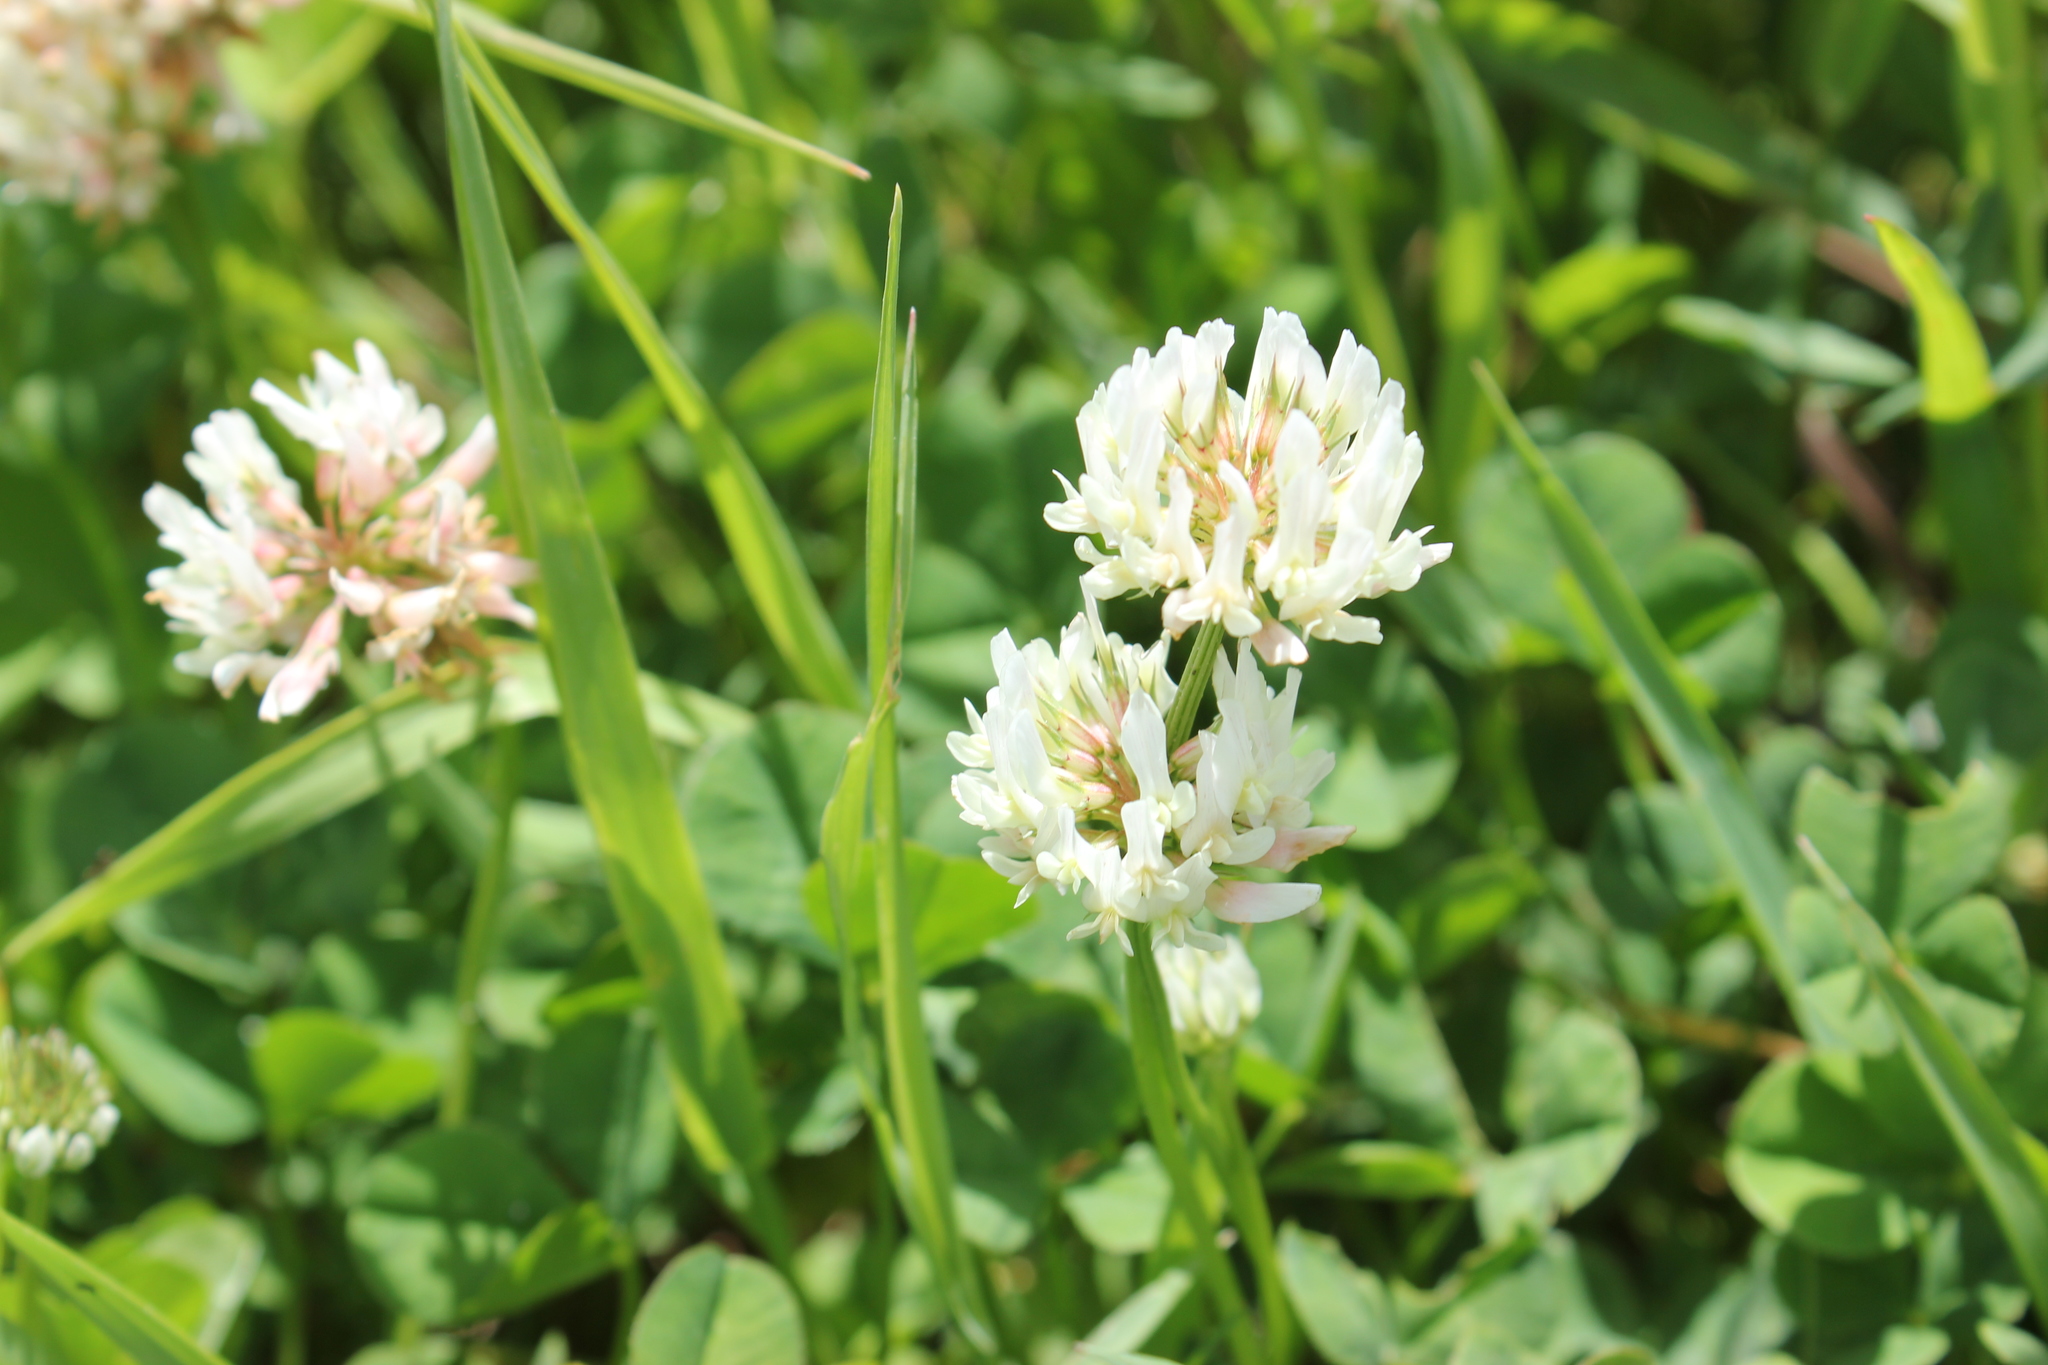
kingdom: Plantae
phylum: Tracheophyta
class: Magnoliopsida
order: Fabales
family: Fabaceae
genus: Trifolium
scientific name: Trifolium repens
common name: White clover
